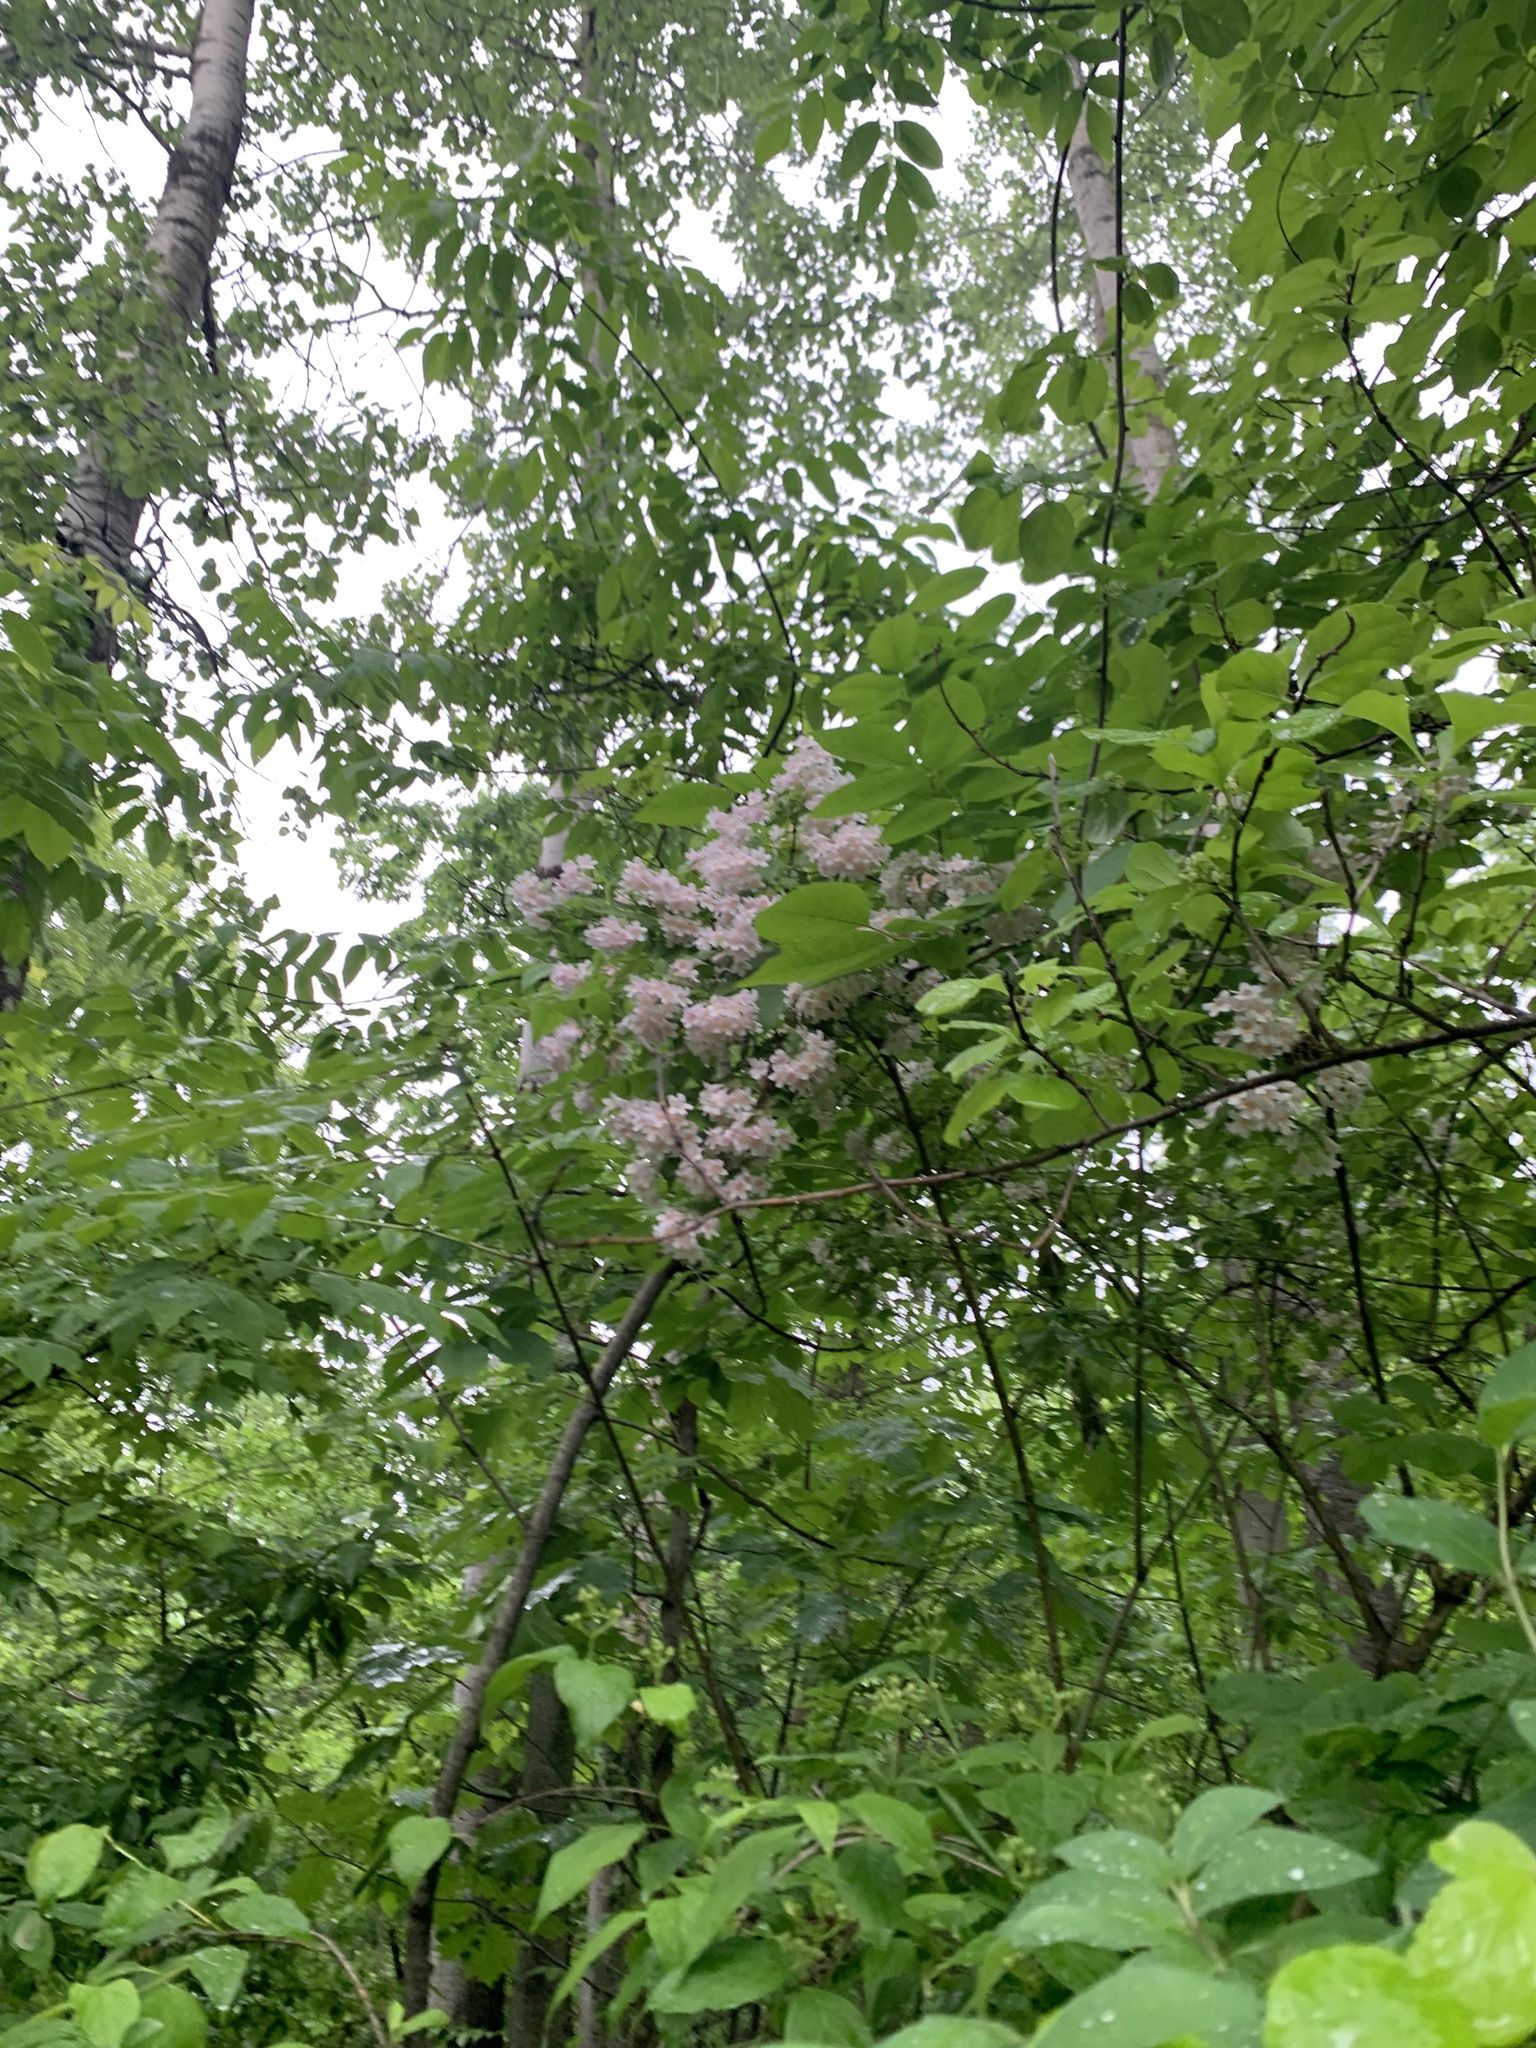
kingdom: Plantae
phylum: Tracheophyta
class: Magnoliopsida
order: Dipsacales
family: Caprifoliaceae
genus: Kolkwitzia
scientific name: Kolkwitzia amabilis
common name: Beautybush
